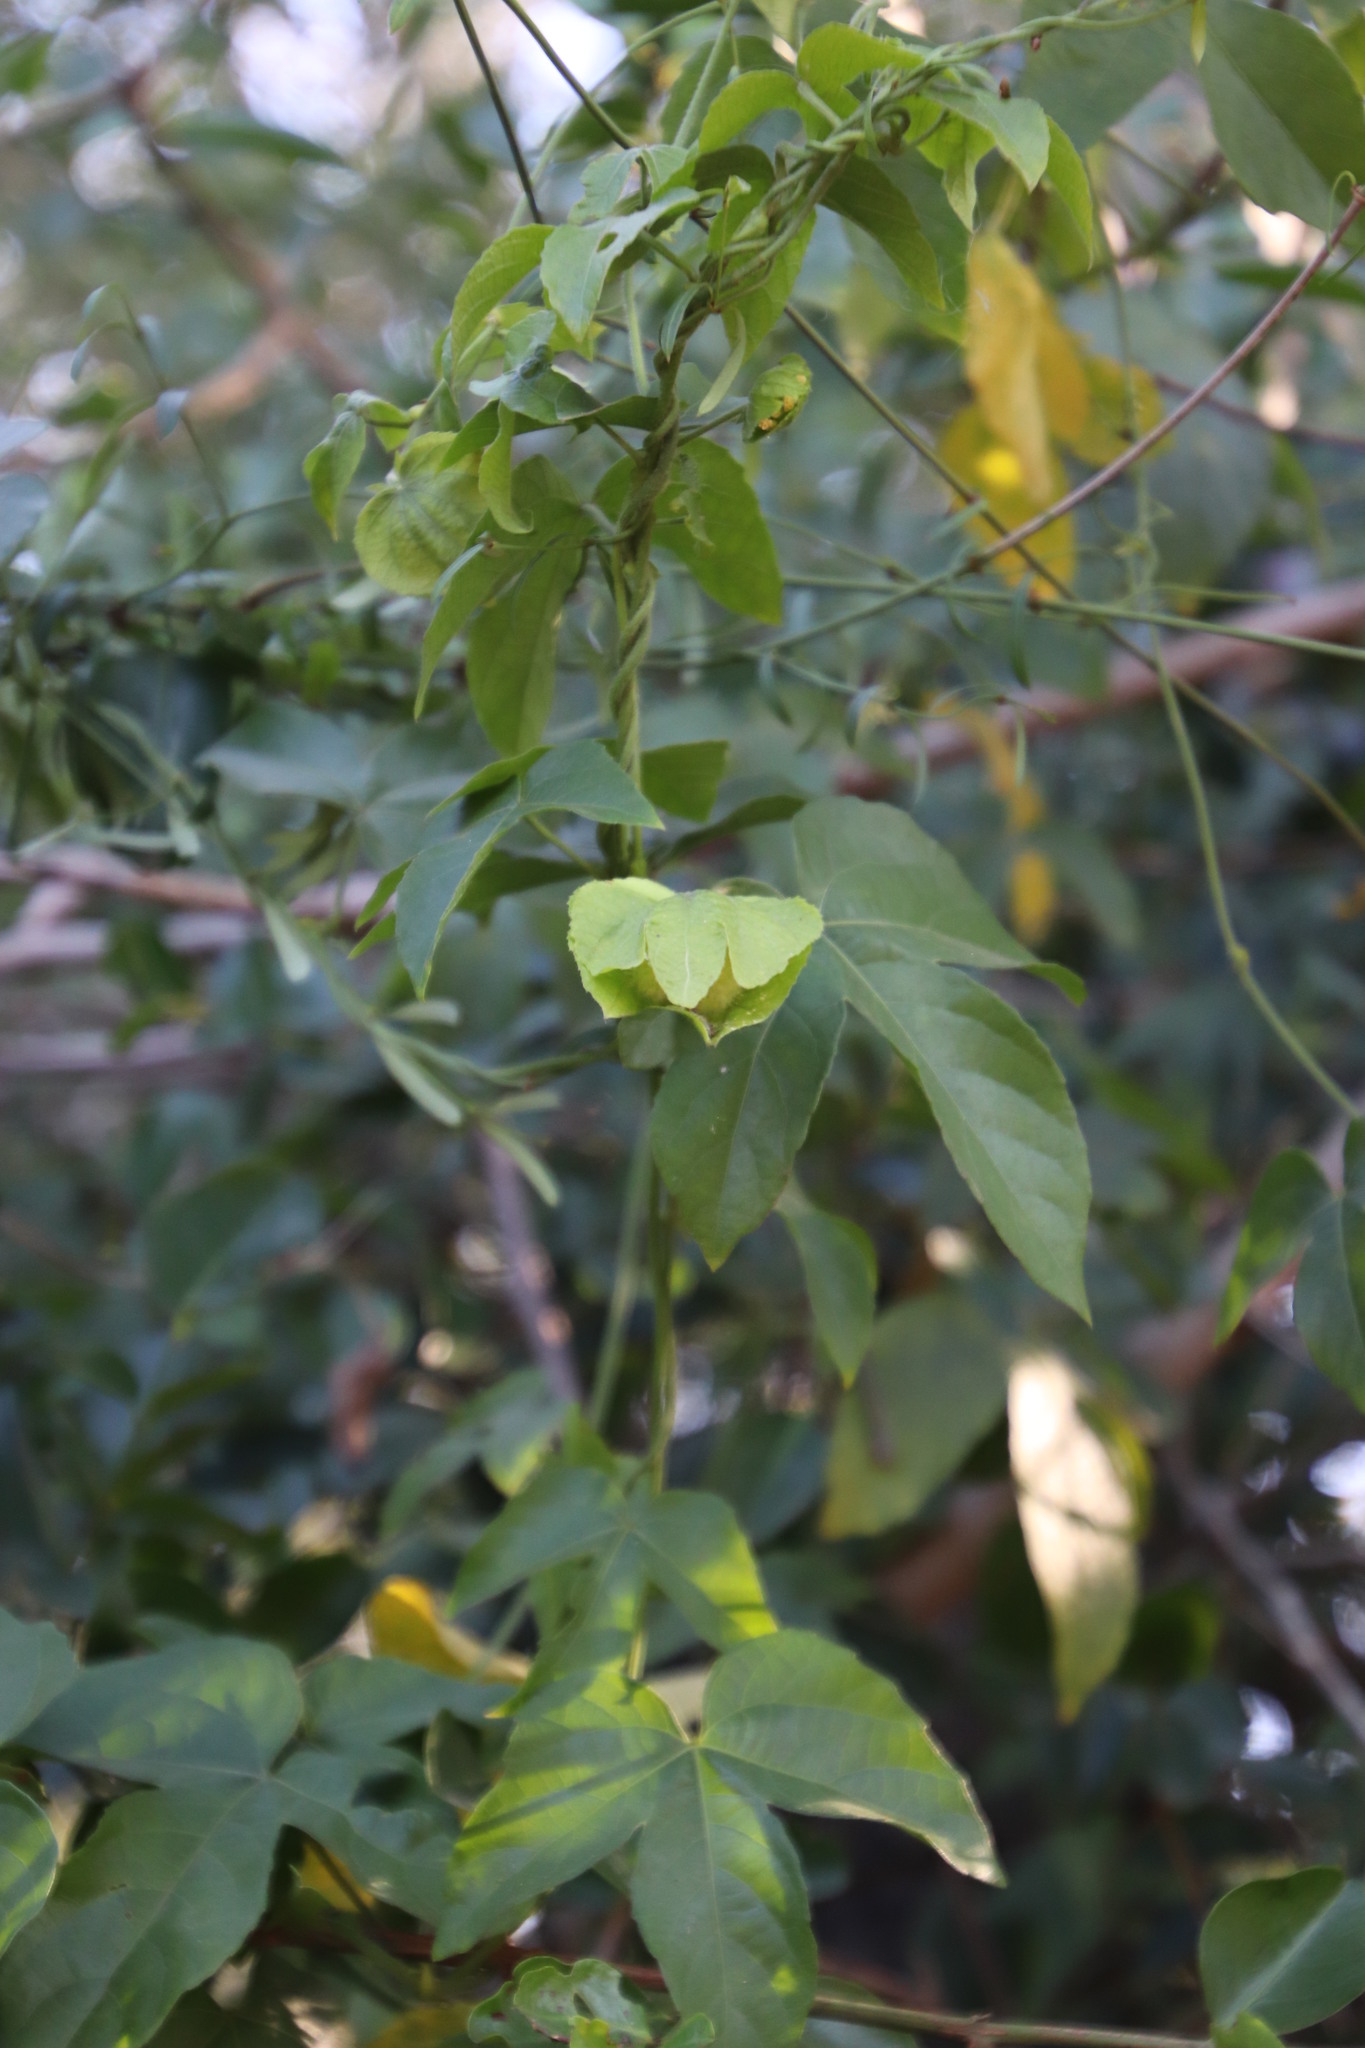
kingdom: Plantae
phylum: Tracheophyta
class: Magnoliopsida
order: Malpighiales
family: Passifloraceae
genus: Passiflora
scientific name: Passiflora suberosa
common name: Wild passionfruit
